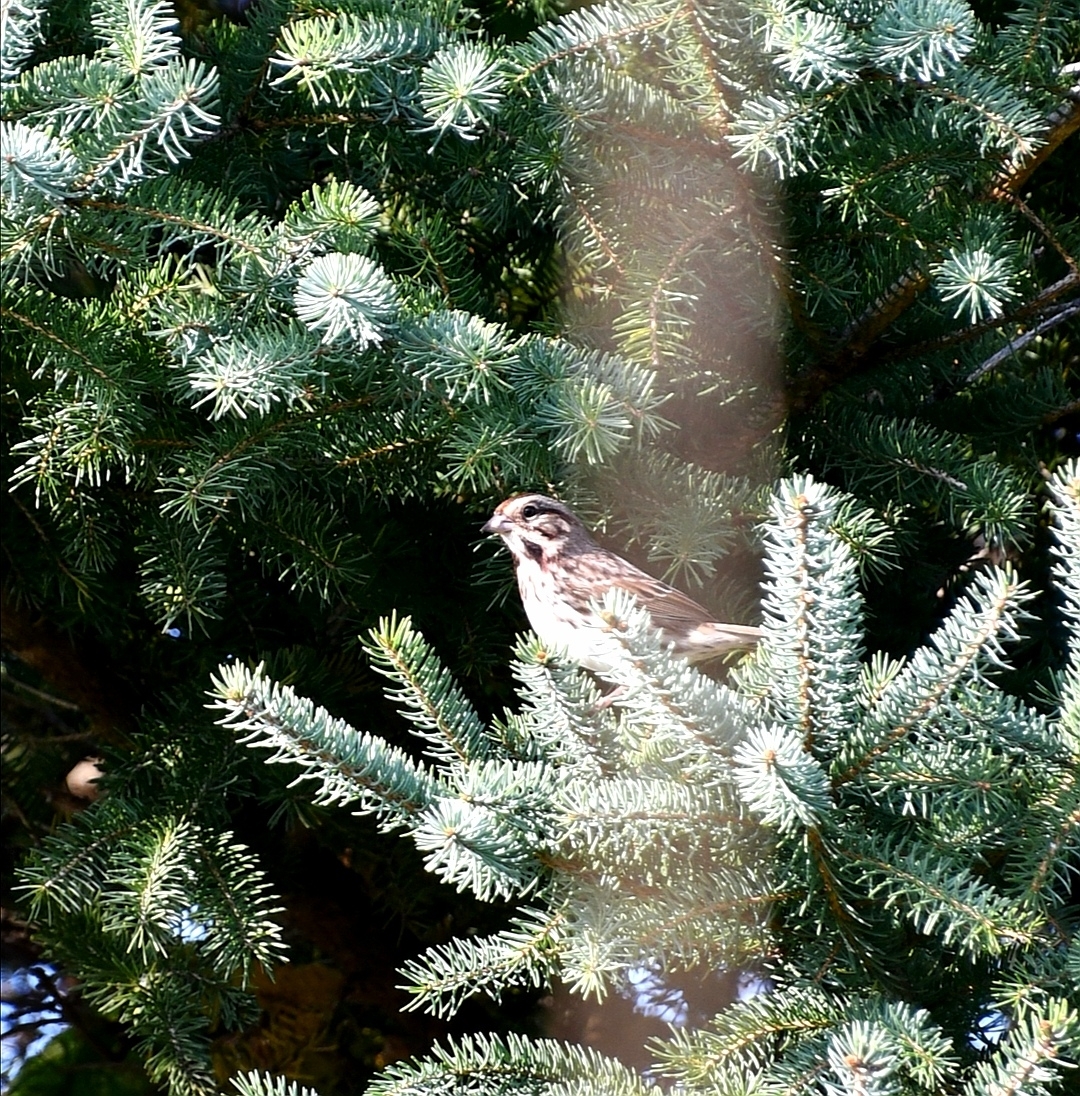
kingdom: Animalia
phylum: Chordata
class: Aves
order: Passeriformes
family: Passerellidae
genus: Melospiza
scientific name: Melospiza melodia
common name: Song sparrow
